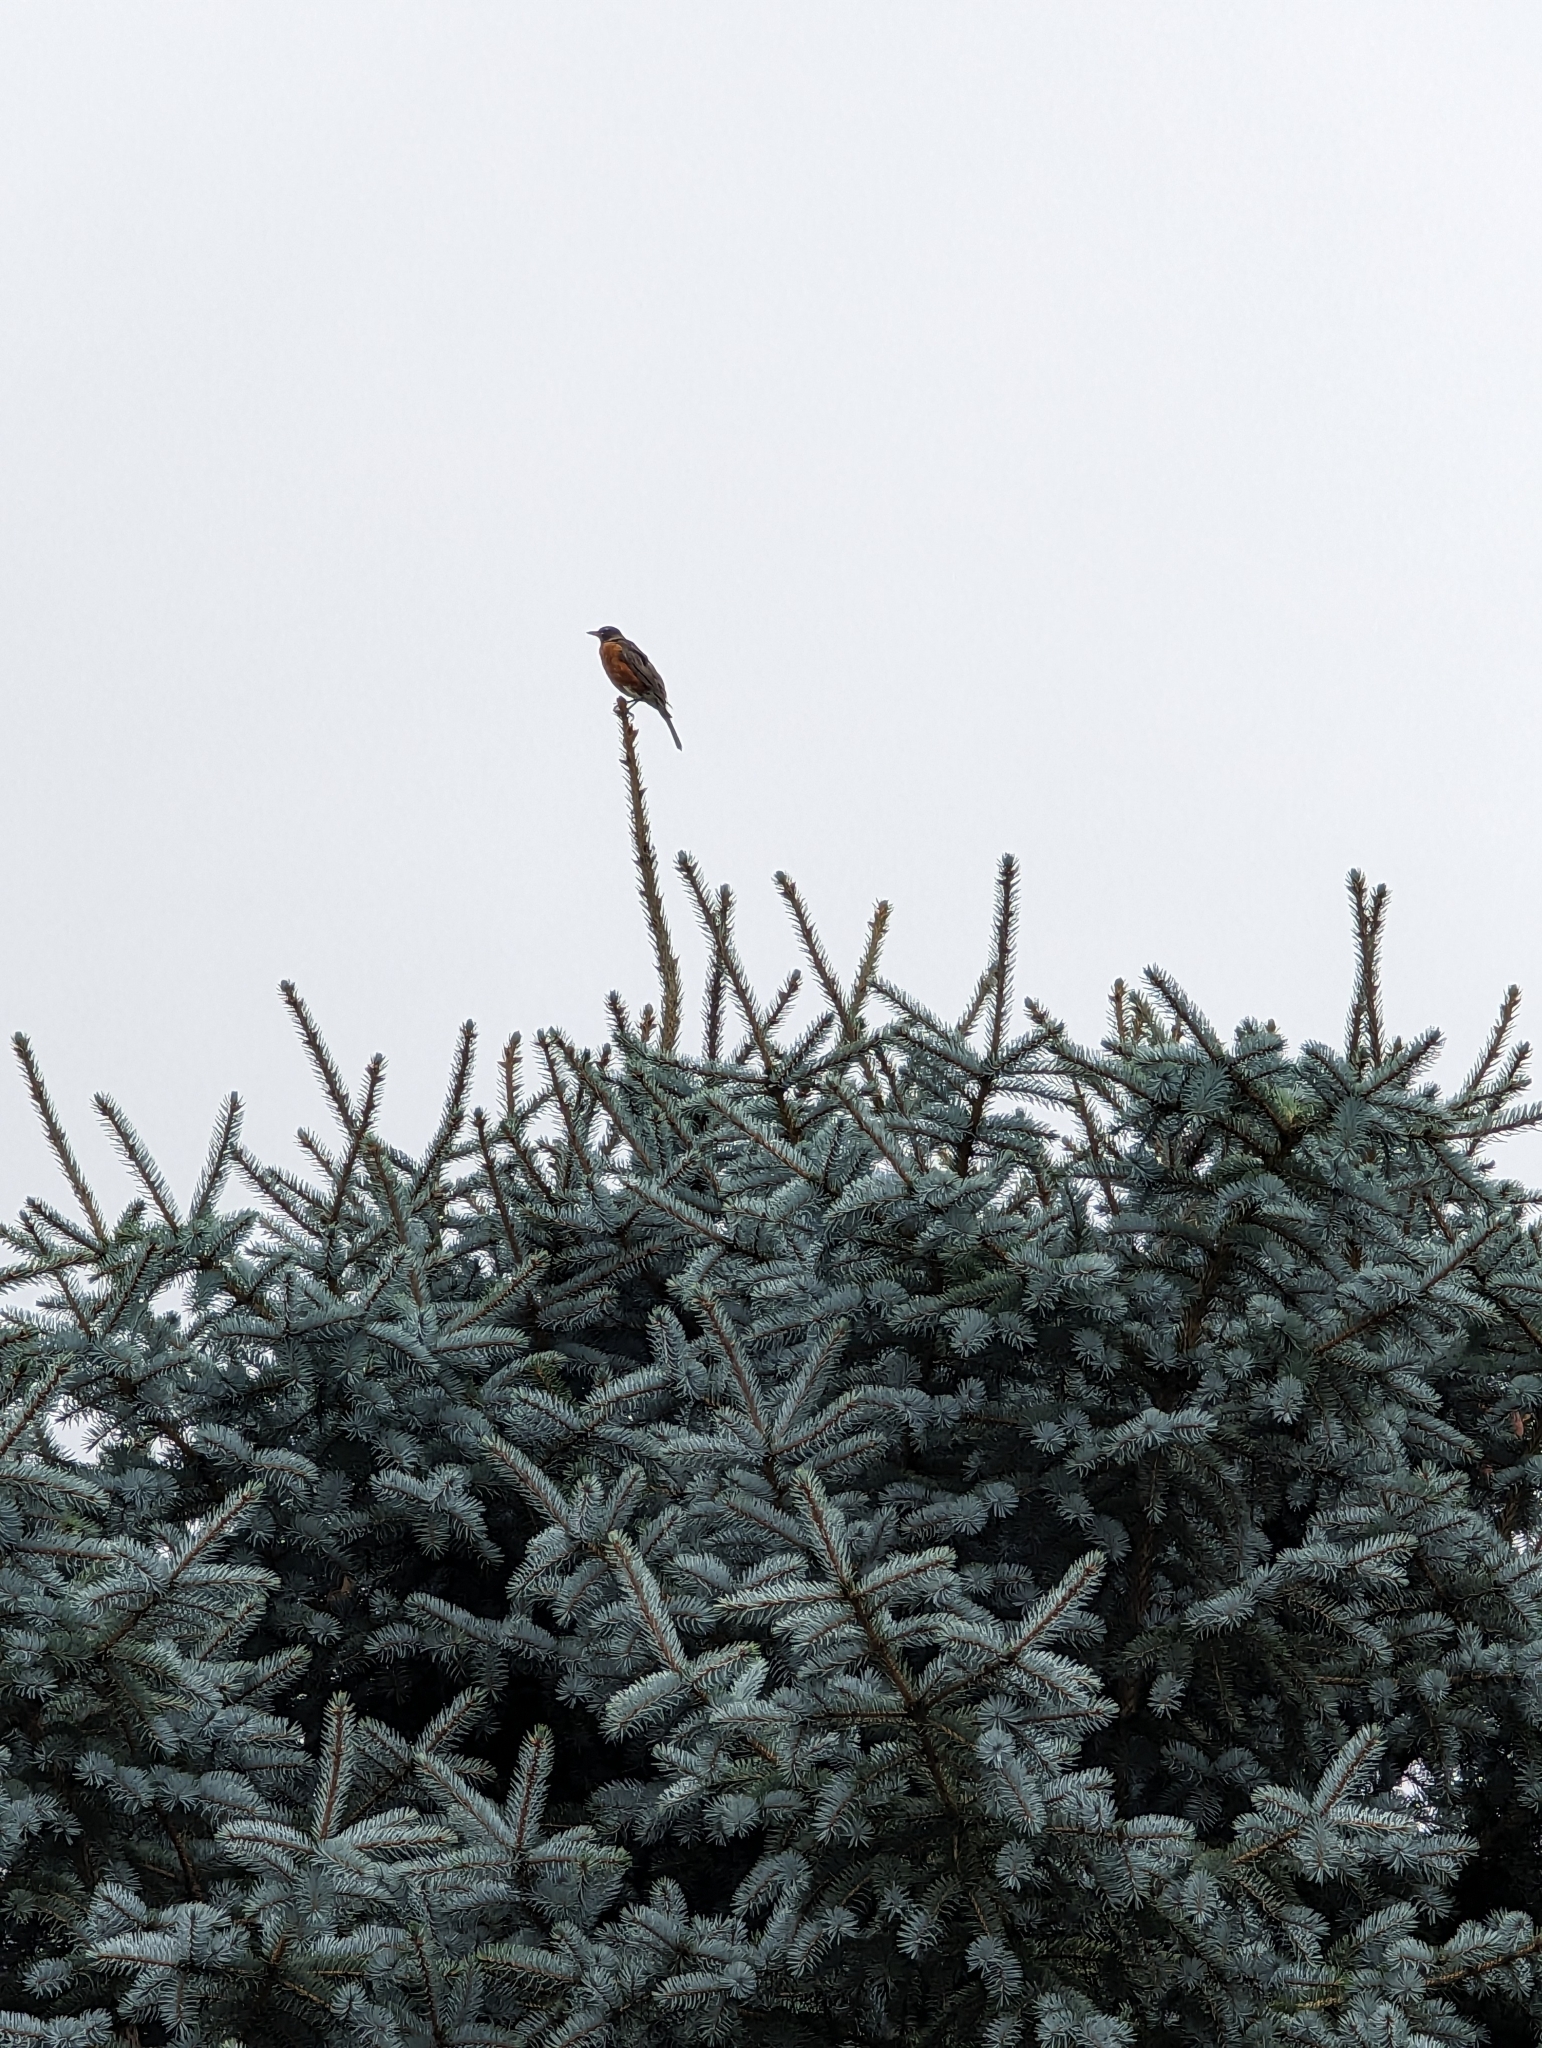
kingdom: Animalia
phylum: Chordata
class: Aves
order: Passeriformes
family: Turdidae
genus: Turdus
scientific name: Turdus migratorius
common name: American robin
